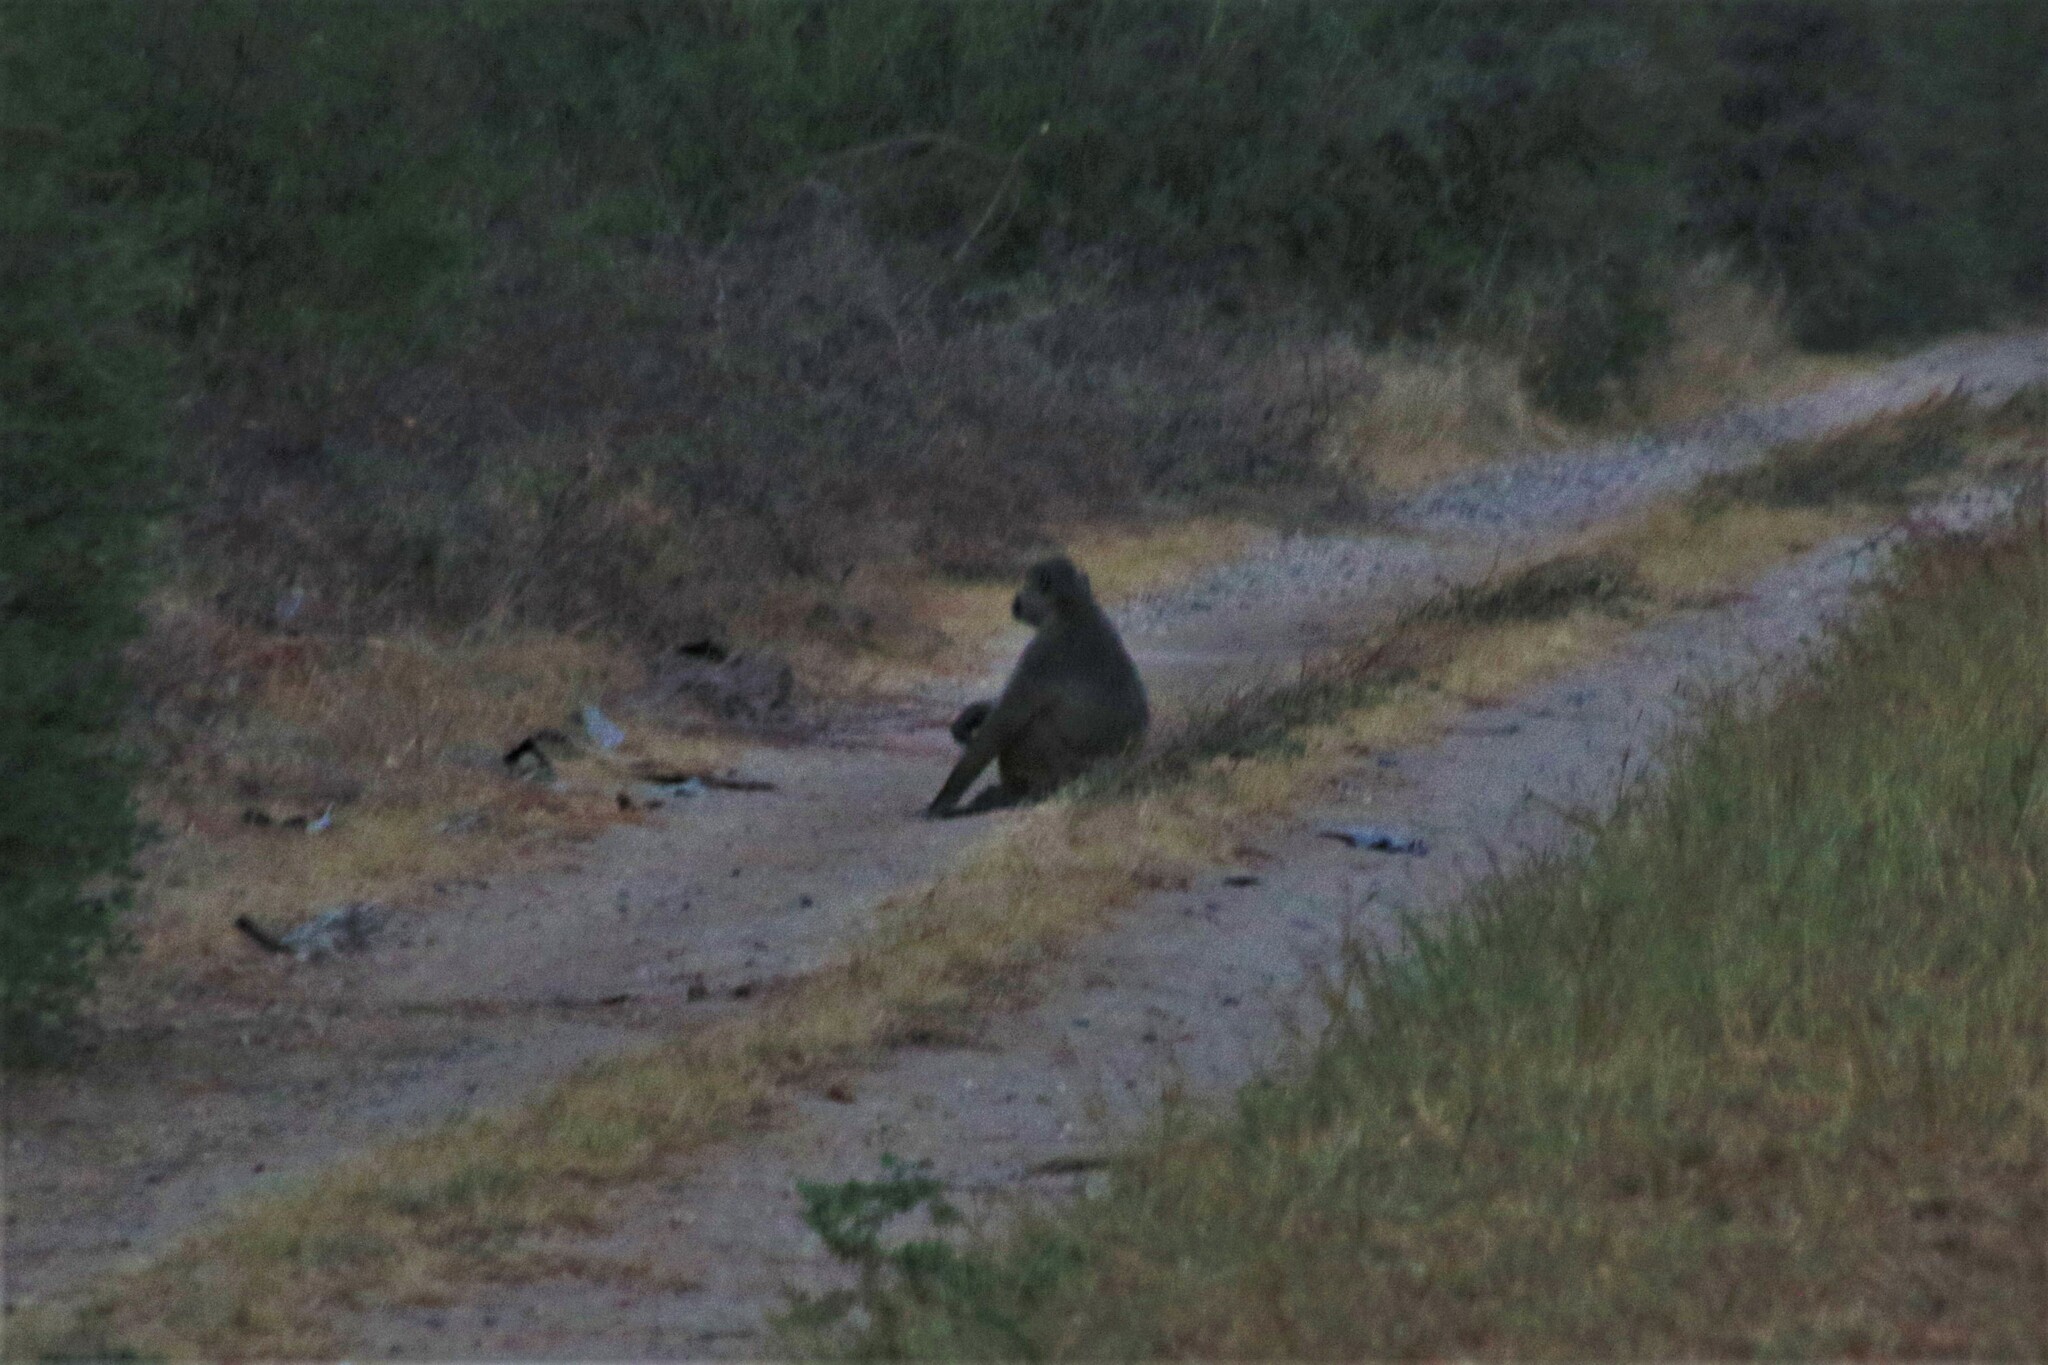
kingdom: Animalia
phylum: Chordata
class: Mammalia
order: Primates
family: Cercopithecidae
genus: Papio
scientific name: Papio cynocephalus
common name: Yellow baboon
